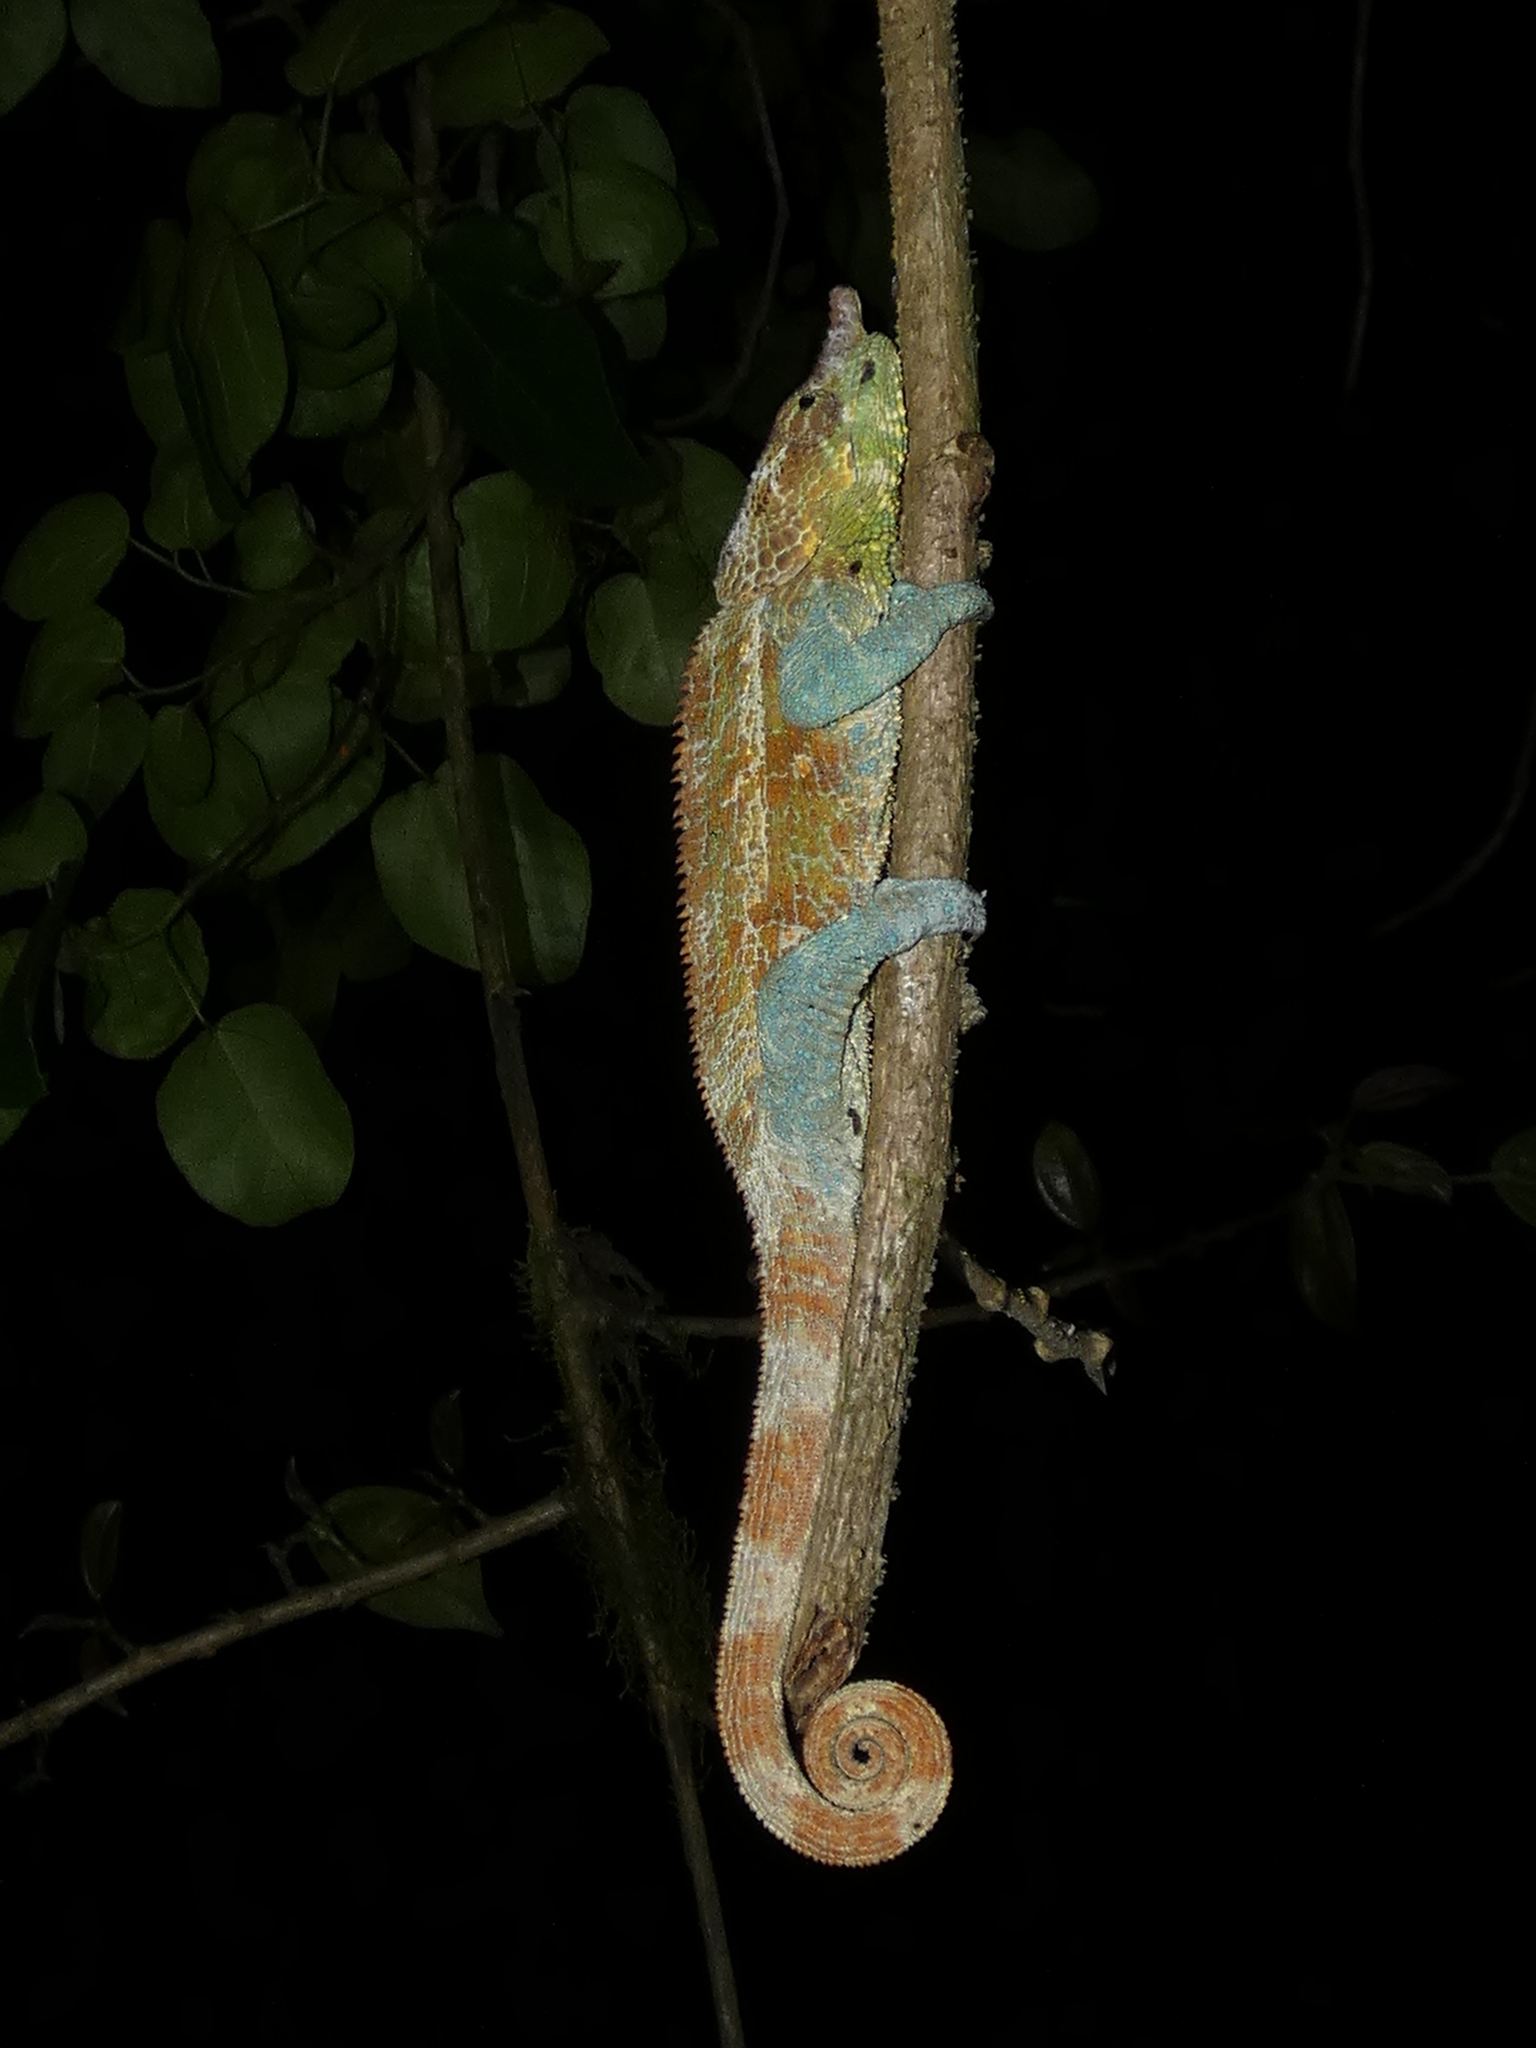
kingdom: Animalia
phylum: Chordata
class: Squamata
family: Chamaeleonidae
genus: Calumma
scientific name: Calumma crypticum
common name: Cryptic chameleon
